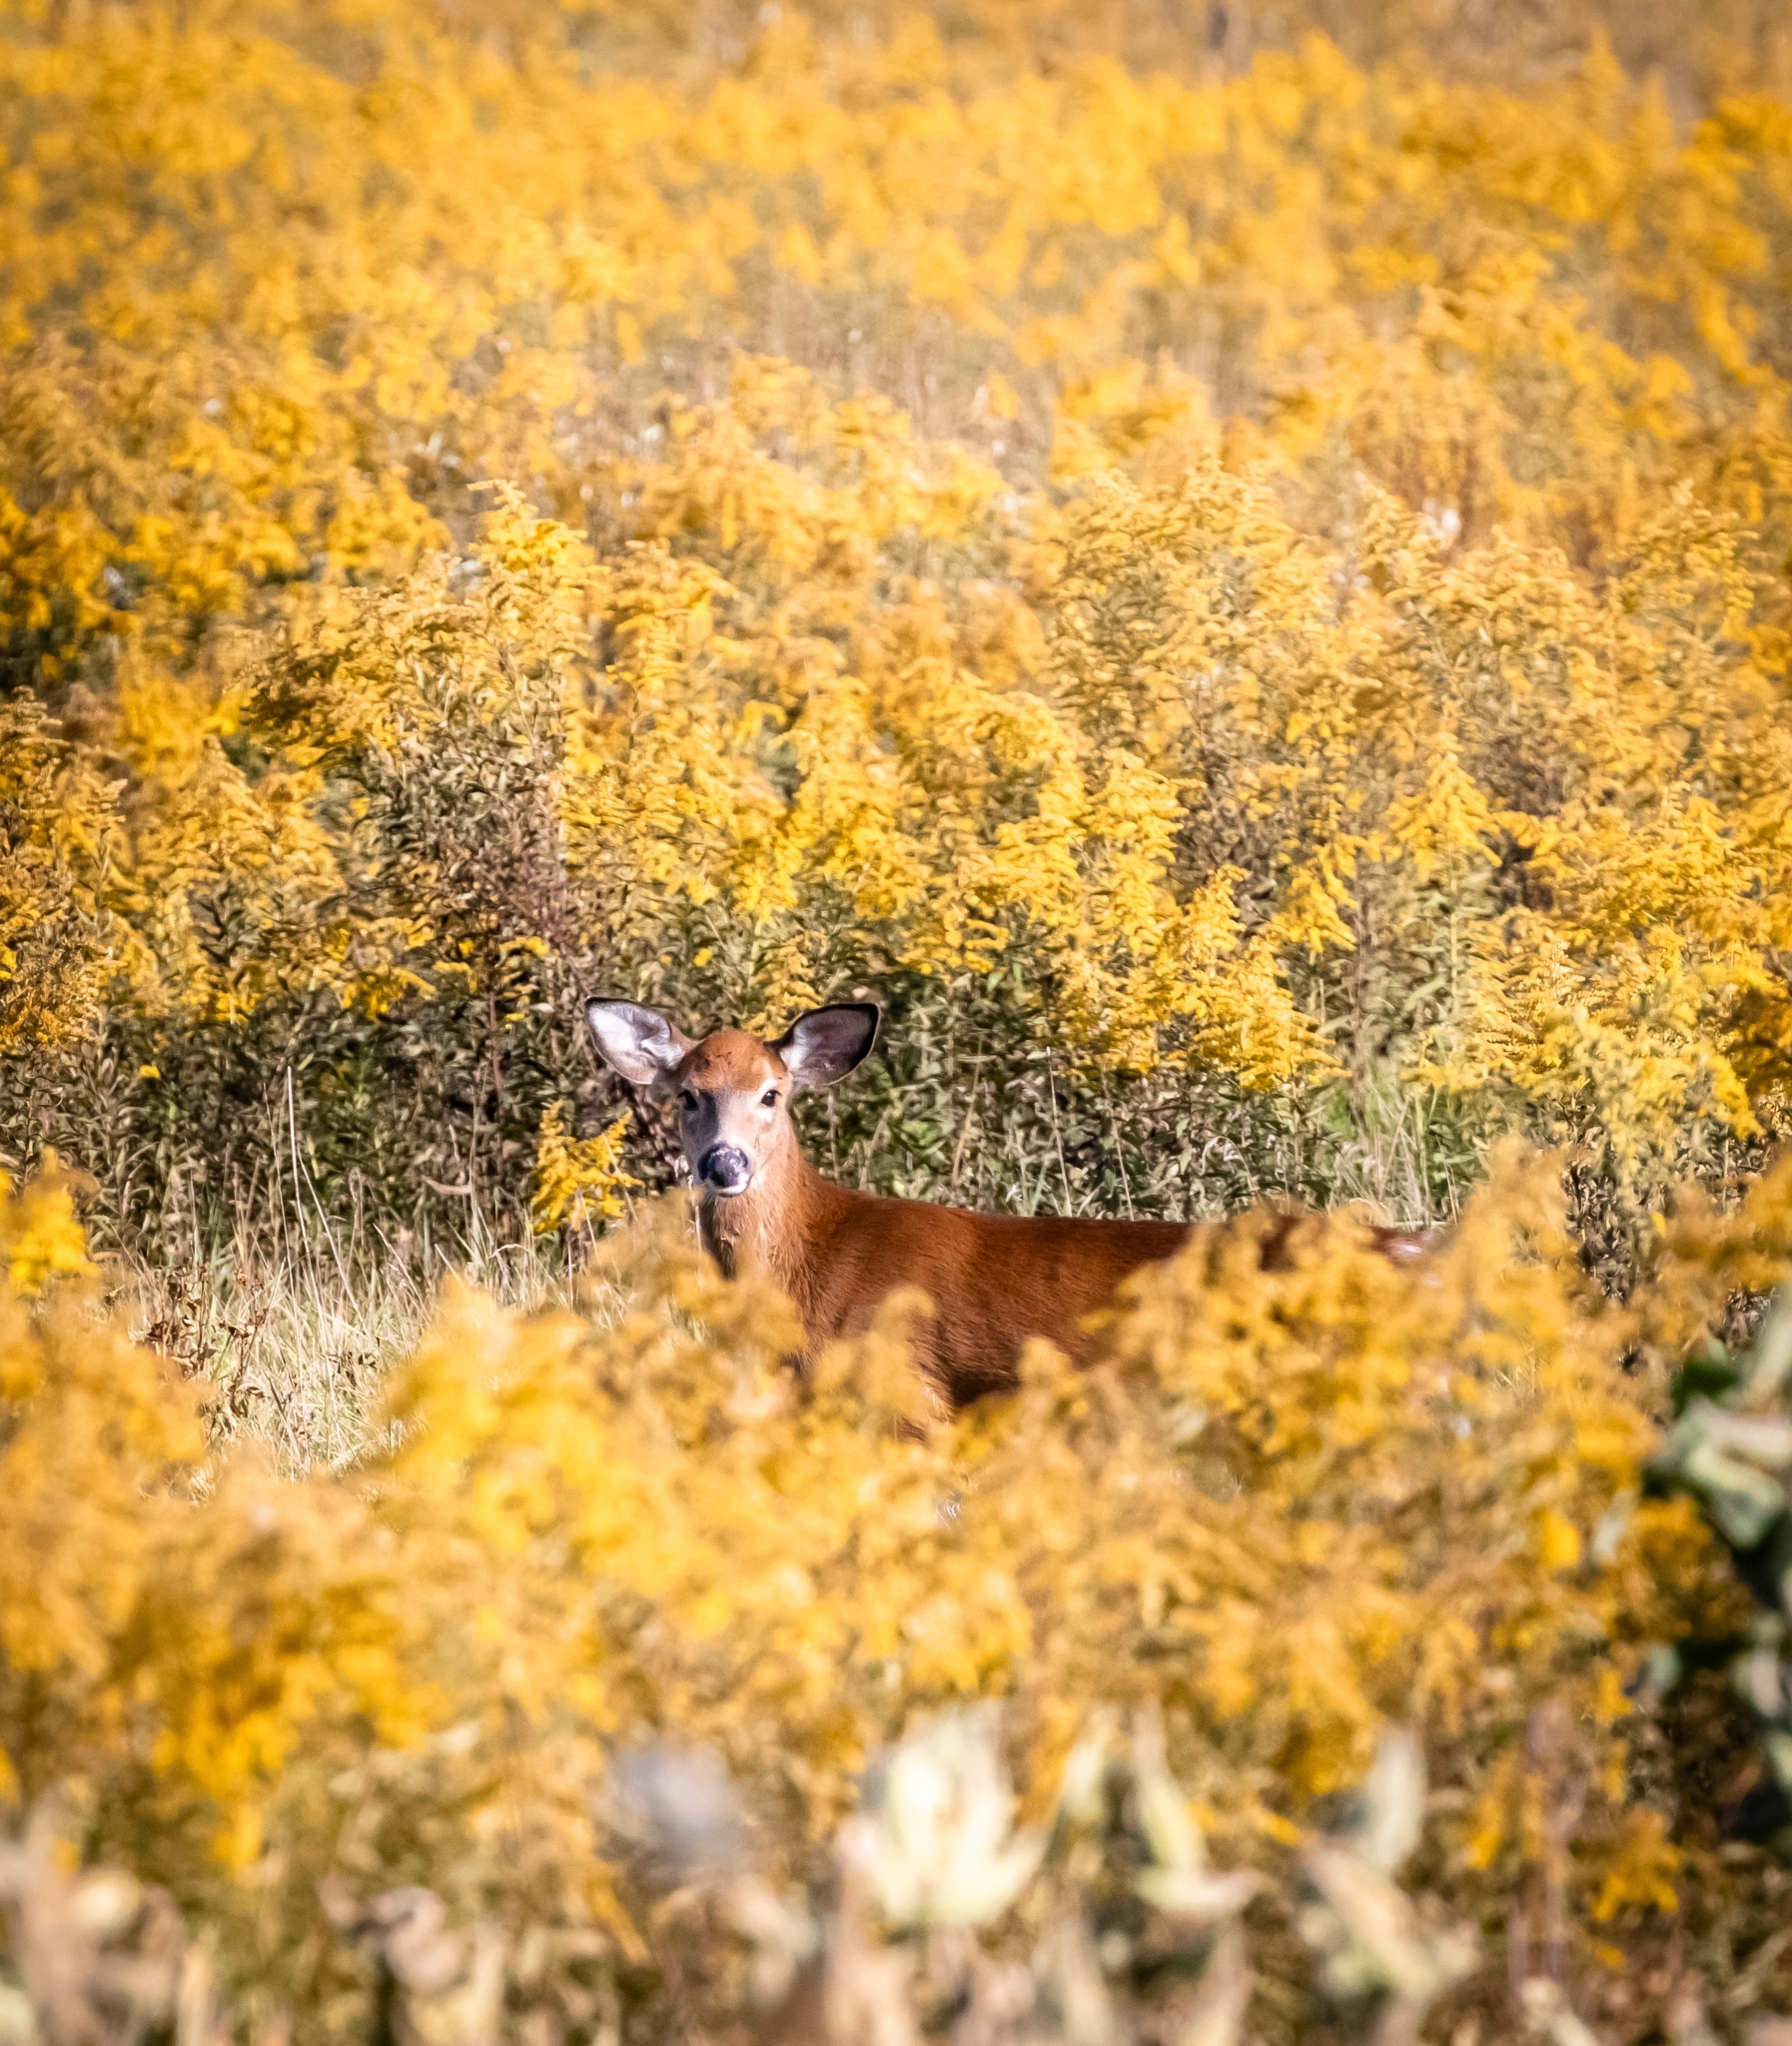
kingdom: Animalia
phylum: Chordata
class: Mammalia
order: Artiodactyla
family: Cervidae
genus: Odocoileus
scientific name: Odocoileus virginianus
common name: White-tailed deer
